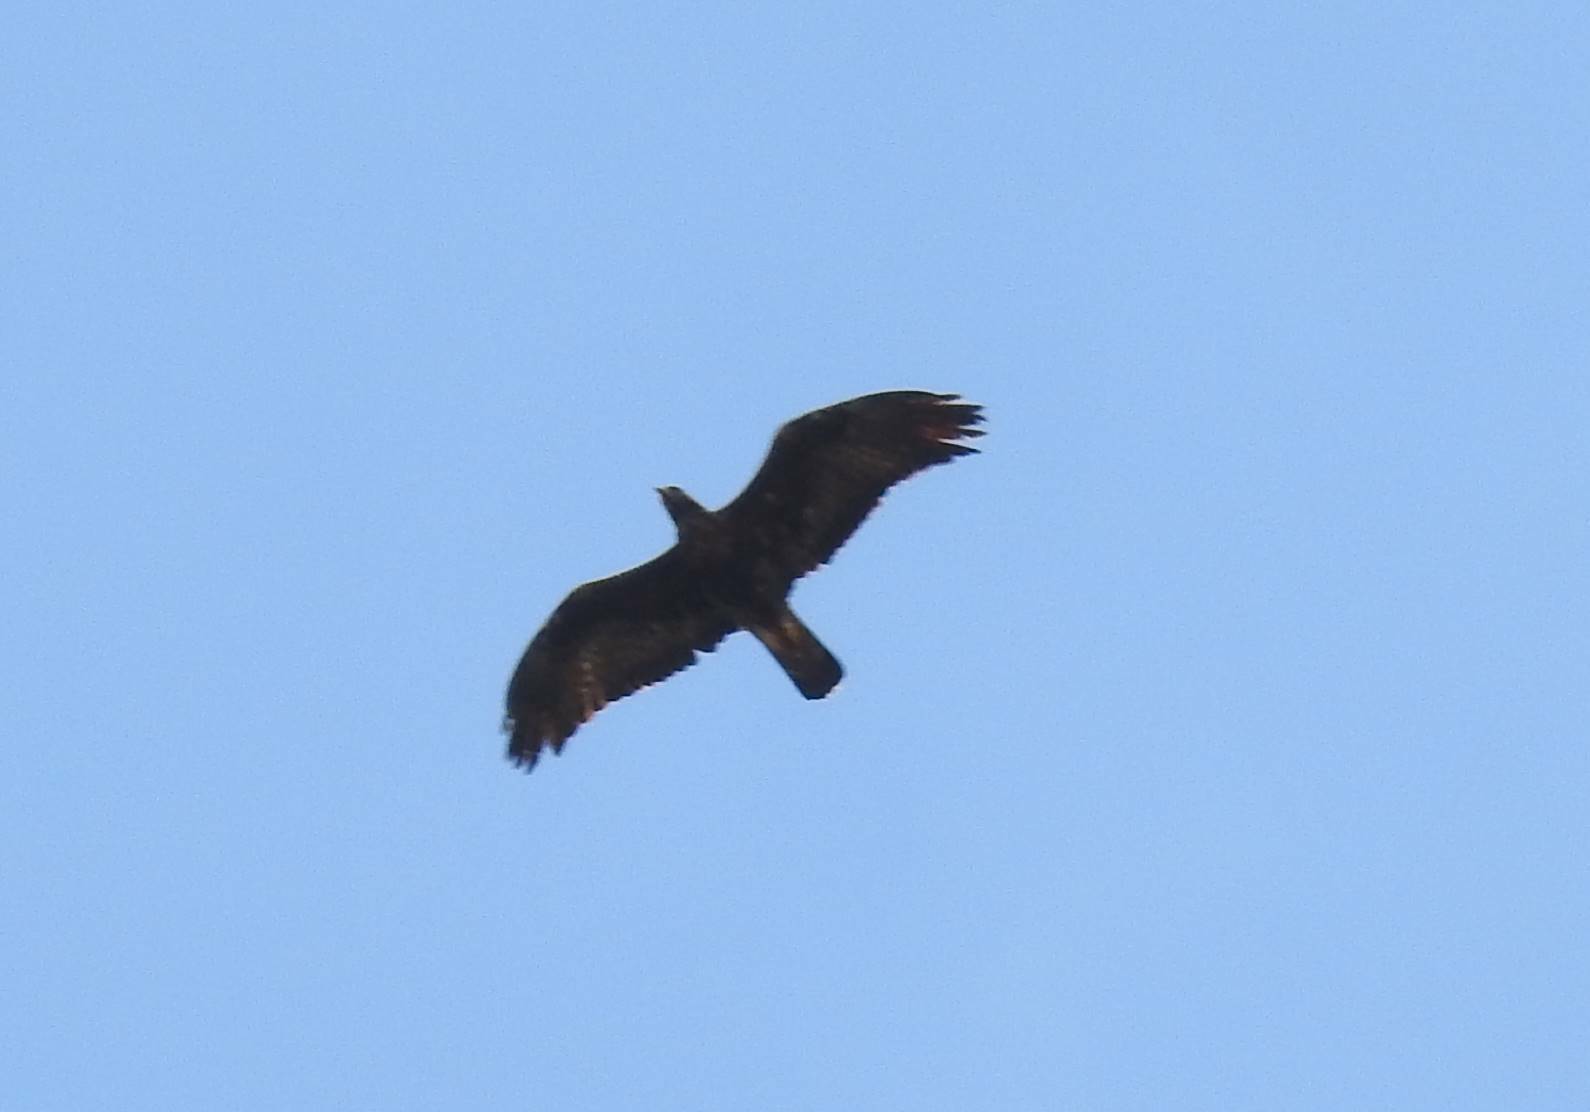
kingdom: Animalia
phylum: Chordata
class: Aves
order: Accipitriformes
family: Accipitridae
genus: Aquila
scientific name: Aquila chrysaetos
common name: Golden eagle
